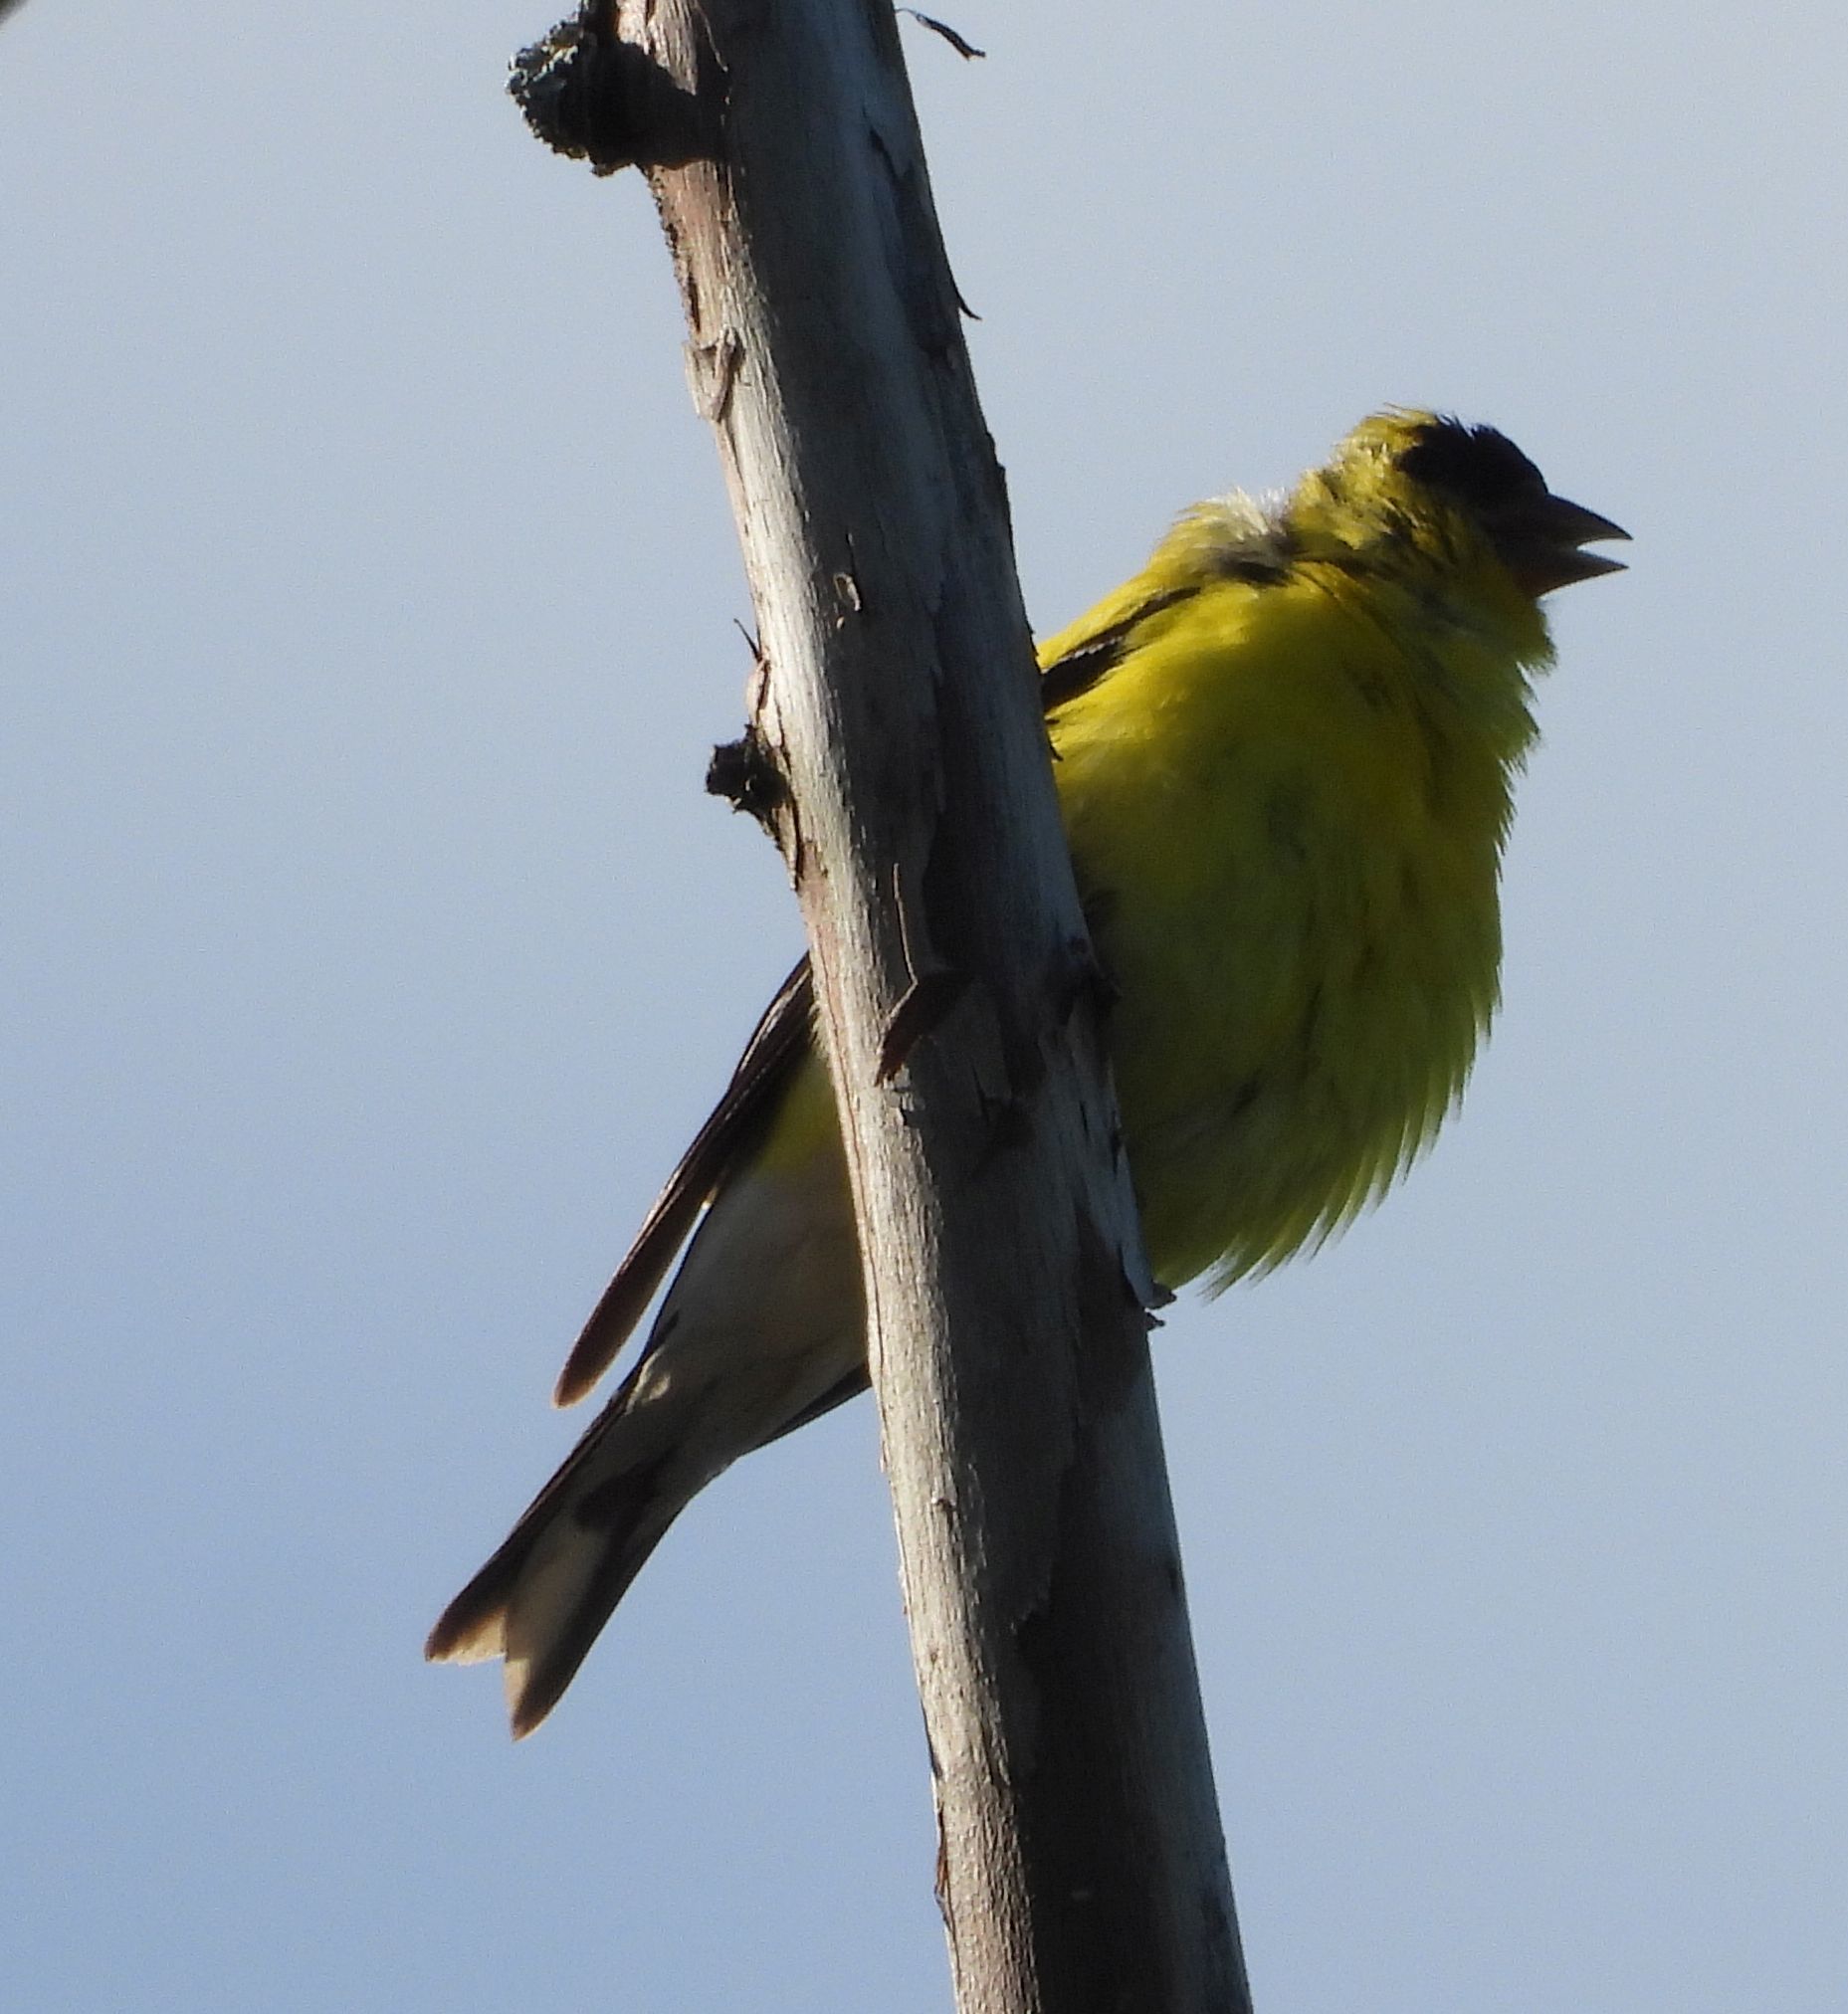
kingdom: Animalia
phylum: Chordata
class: Aves
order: Passeriformes
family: Fringillidae
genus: Spinus
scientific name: Spinus tristis
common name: American goldfinch
